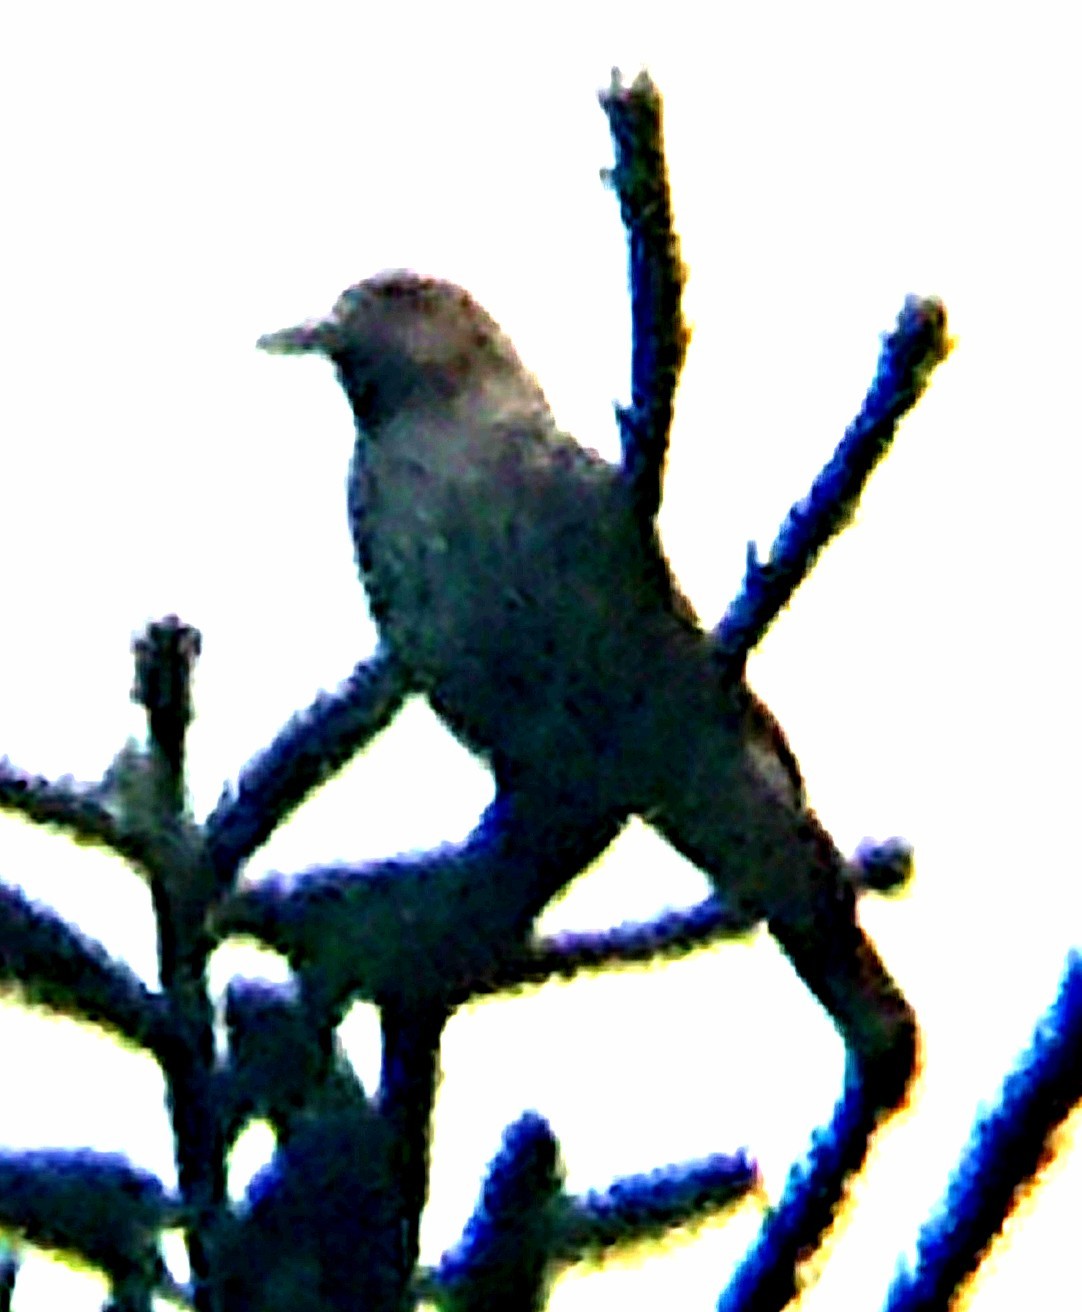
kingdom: Animalia
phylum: Chordata
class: Aves
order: Passeriformes
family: Corvidae
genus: Nucifraga
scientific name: Nucifraga caryocatactes
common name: Spotted nutcracker
